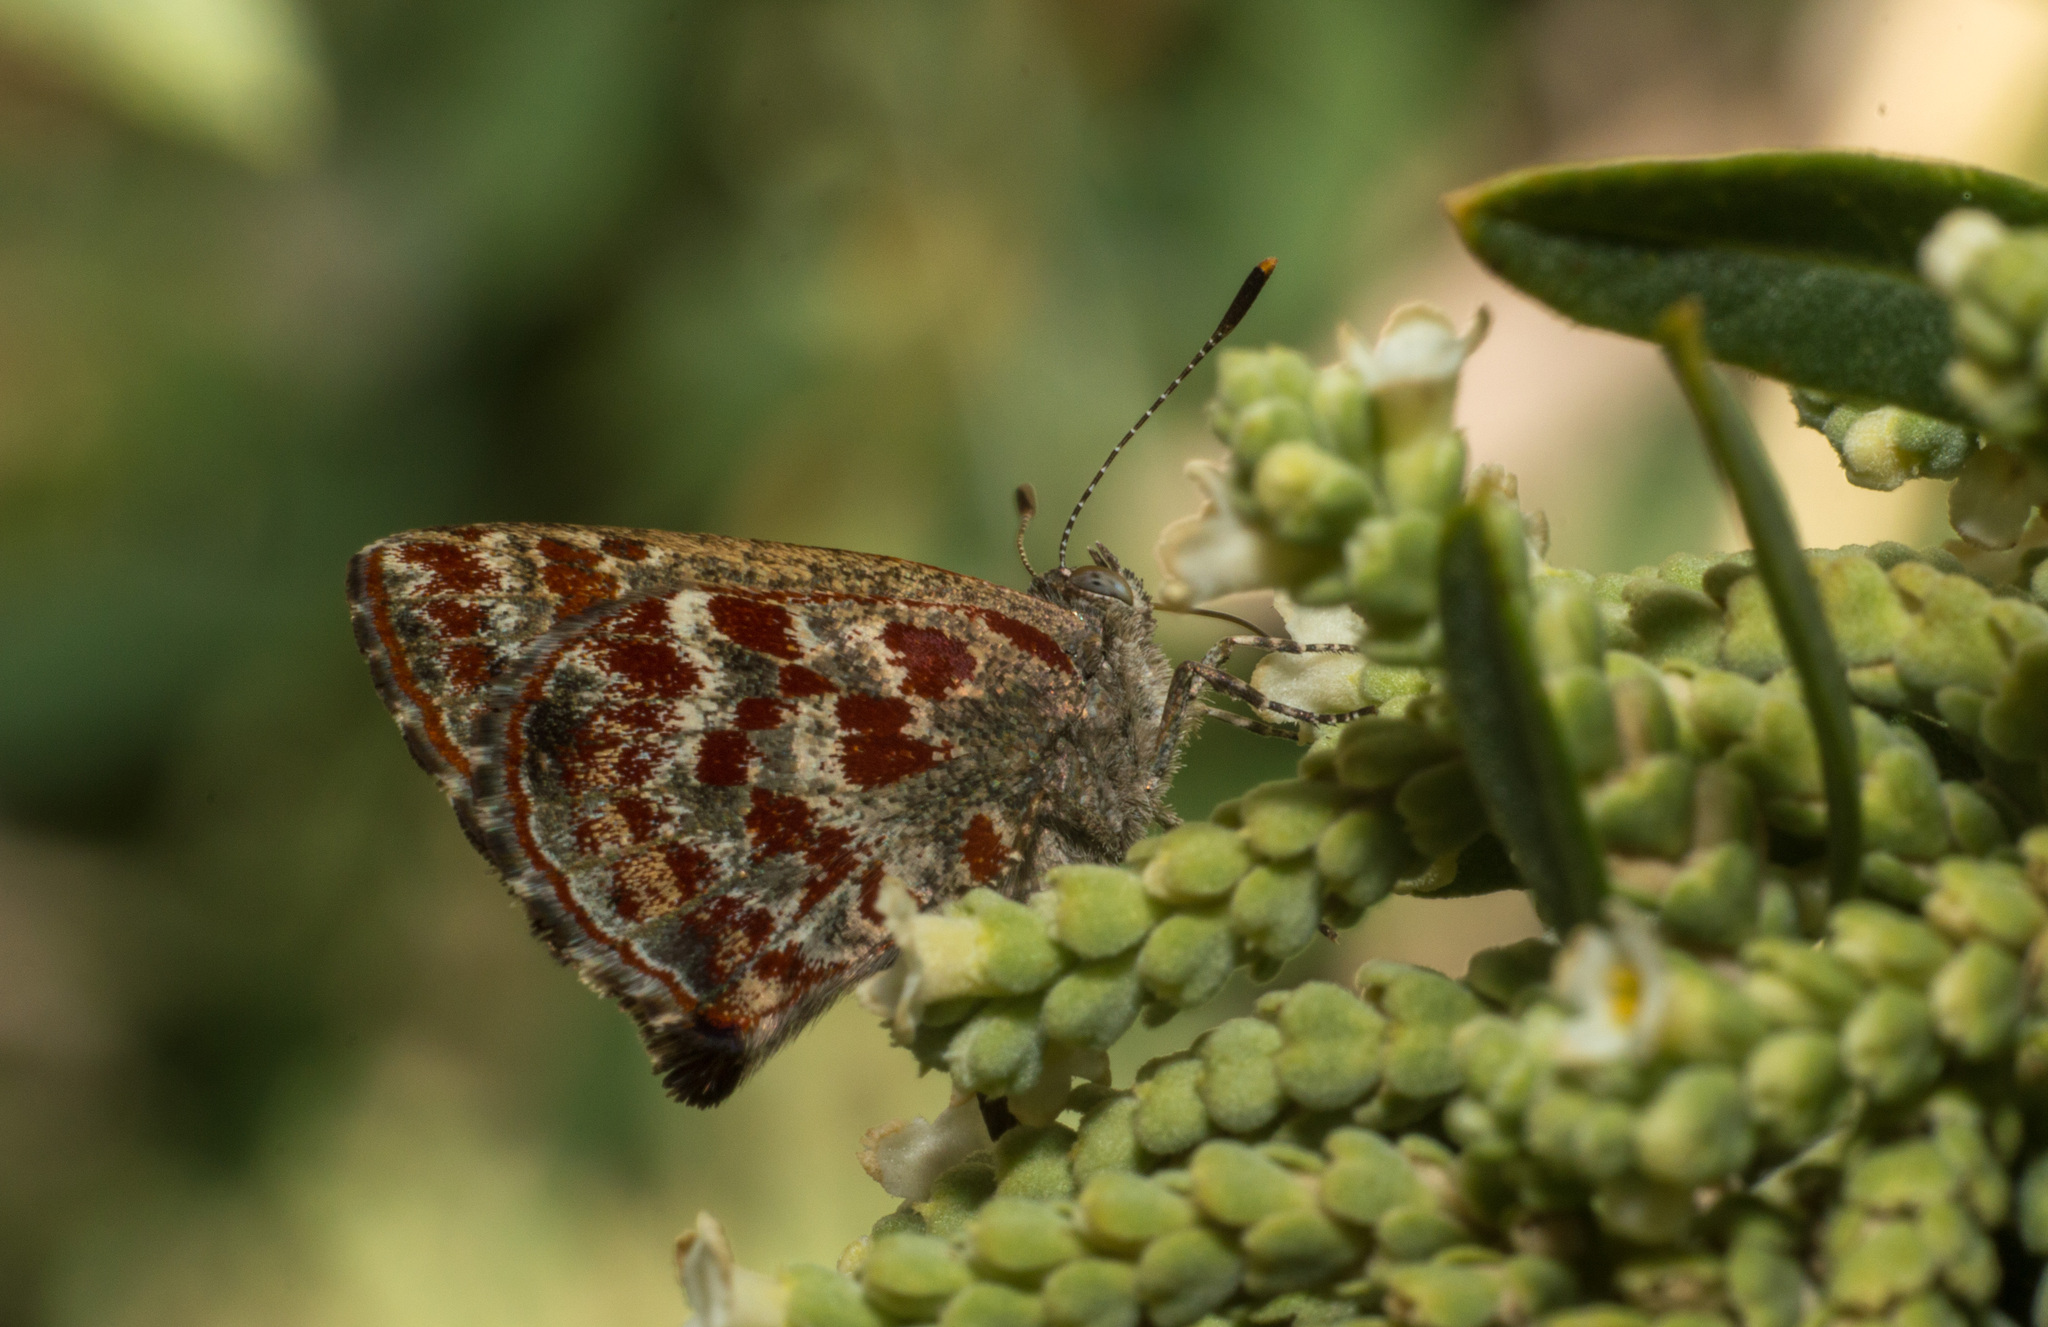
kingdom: Animalia
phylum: Arthropoda
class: Insecta
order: Lepidoptera
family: Lycaenidae
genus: Ministrymon
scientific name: Ministrymon
